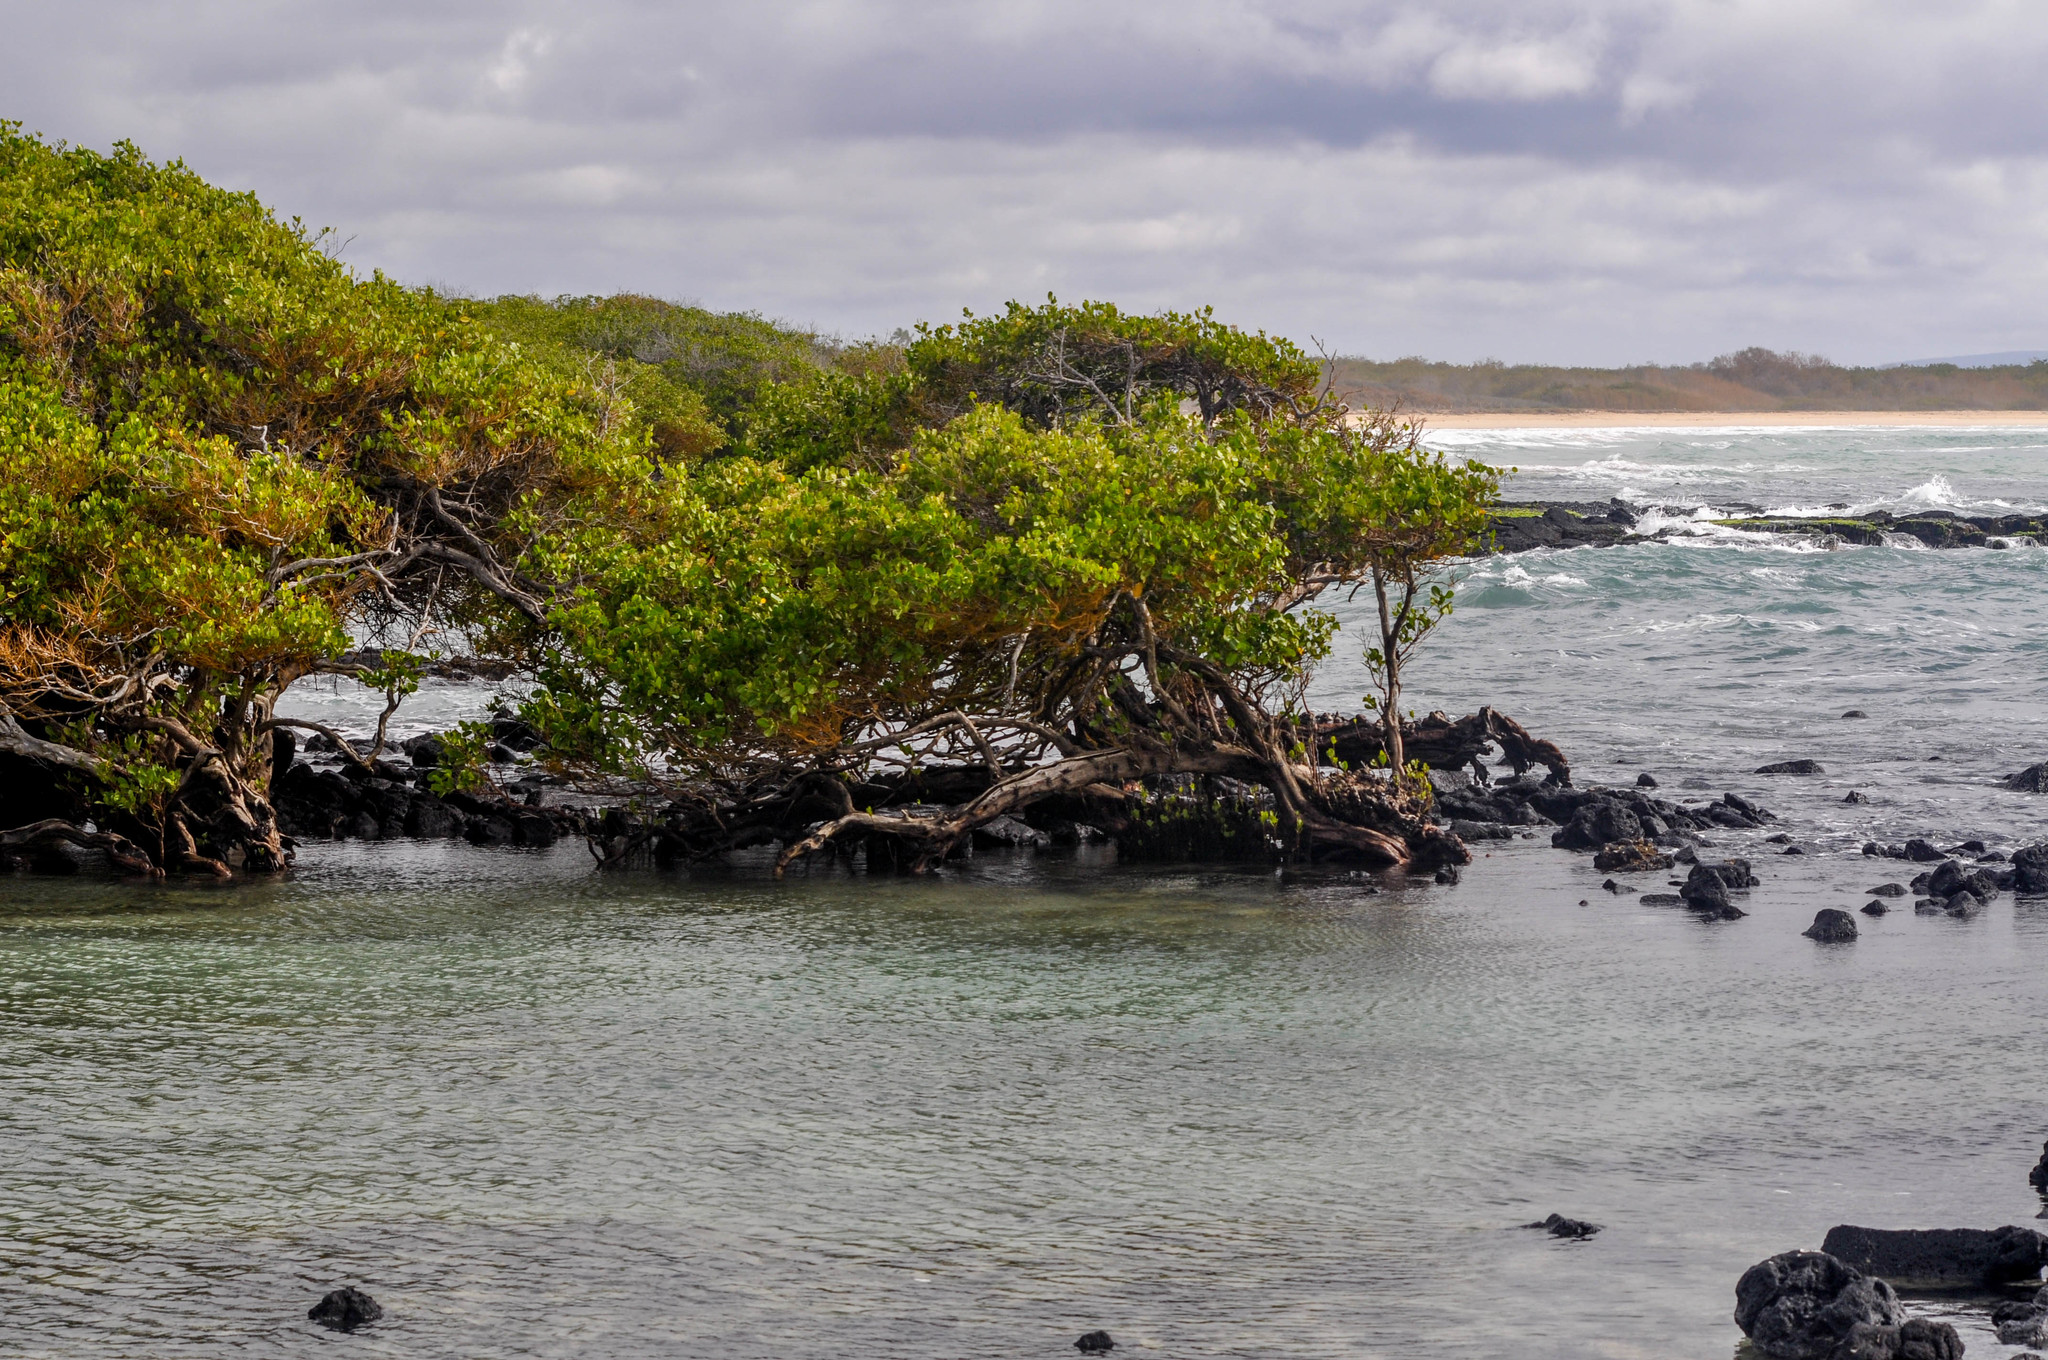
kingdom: Plantae
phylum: Tracheophyta
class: Magnoliopsida
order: Lamiales
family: Acanthaceae
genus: Avicennia
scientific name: Avicennia germinans
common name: Black mangrove
